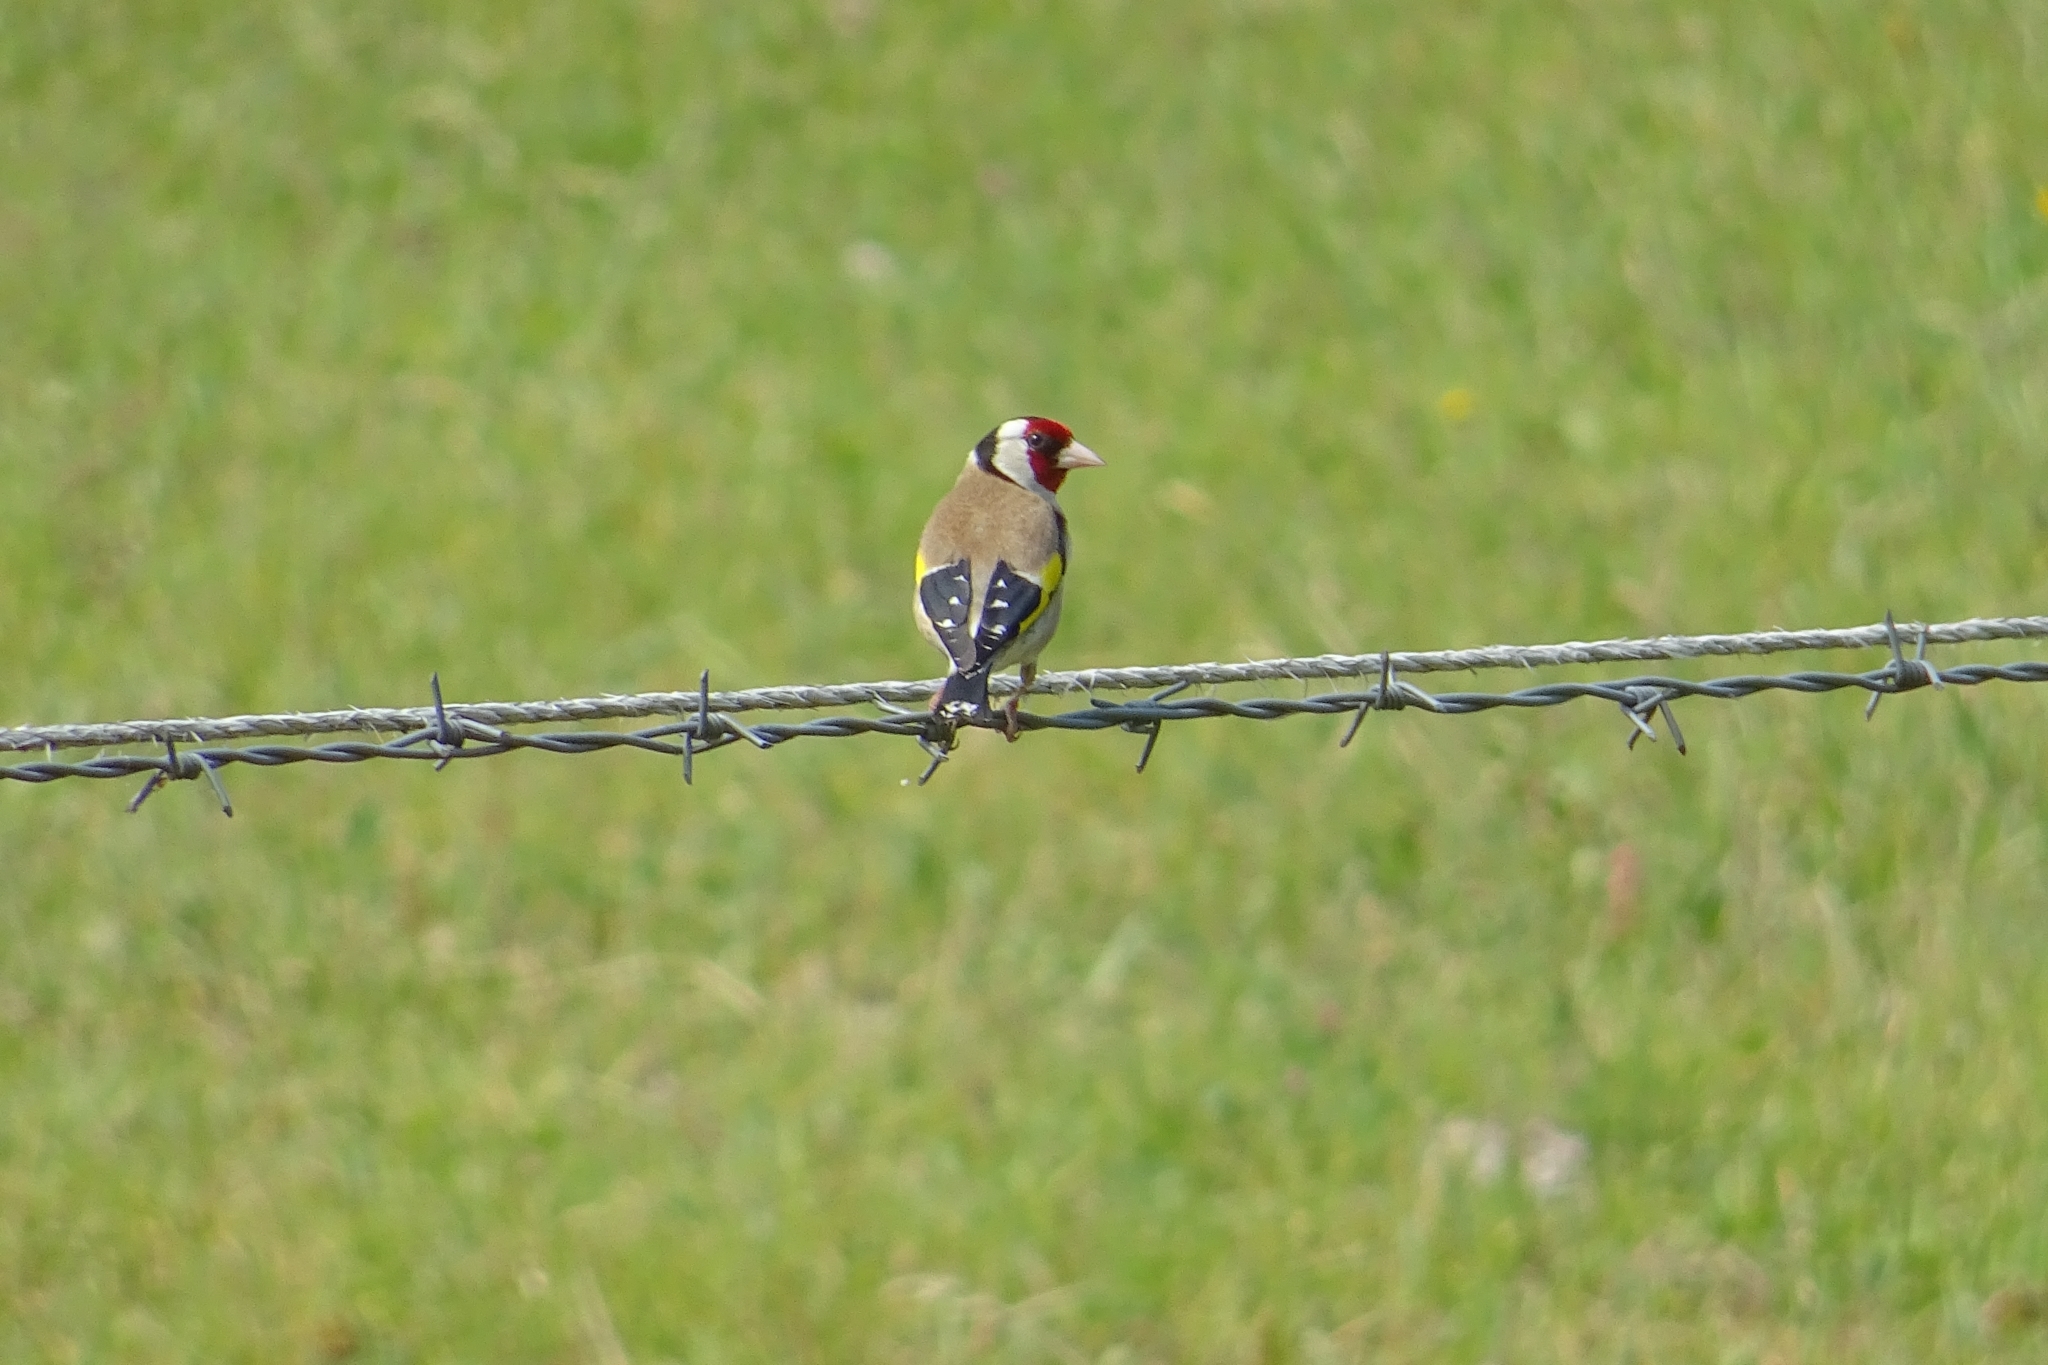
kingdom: Animalia
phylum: Chordata
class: Aves
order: Passeriformes
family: Fringillidae
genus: Carduelis
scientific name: Carduelis carduelis
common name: European goldfinch
